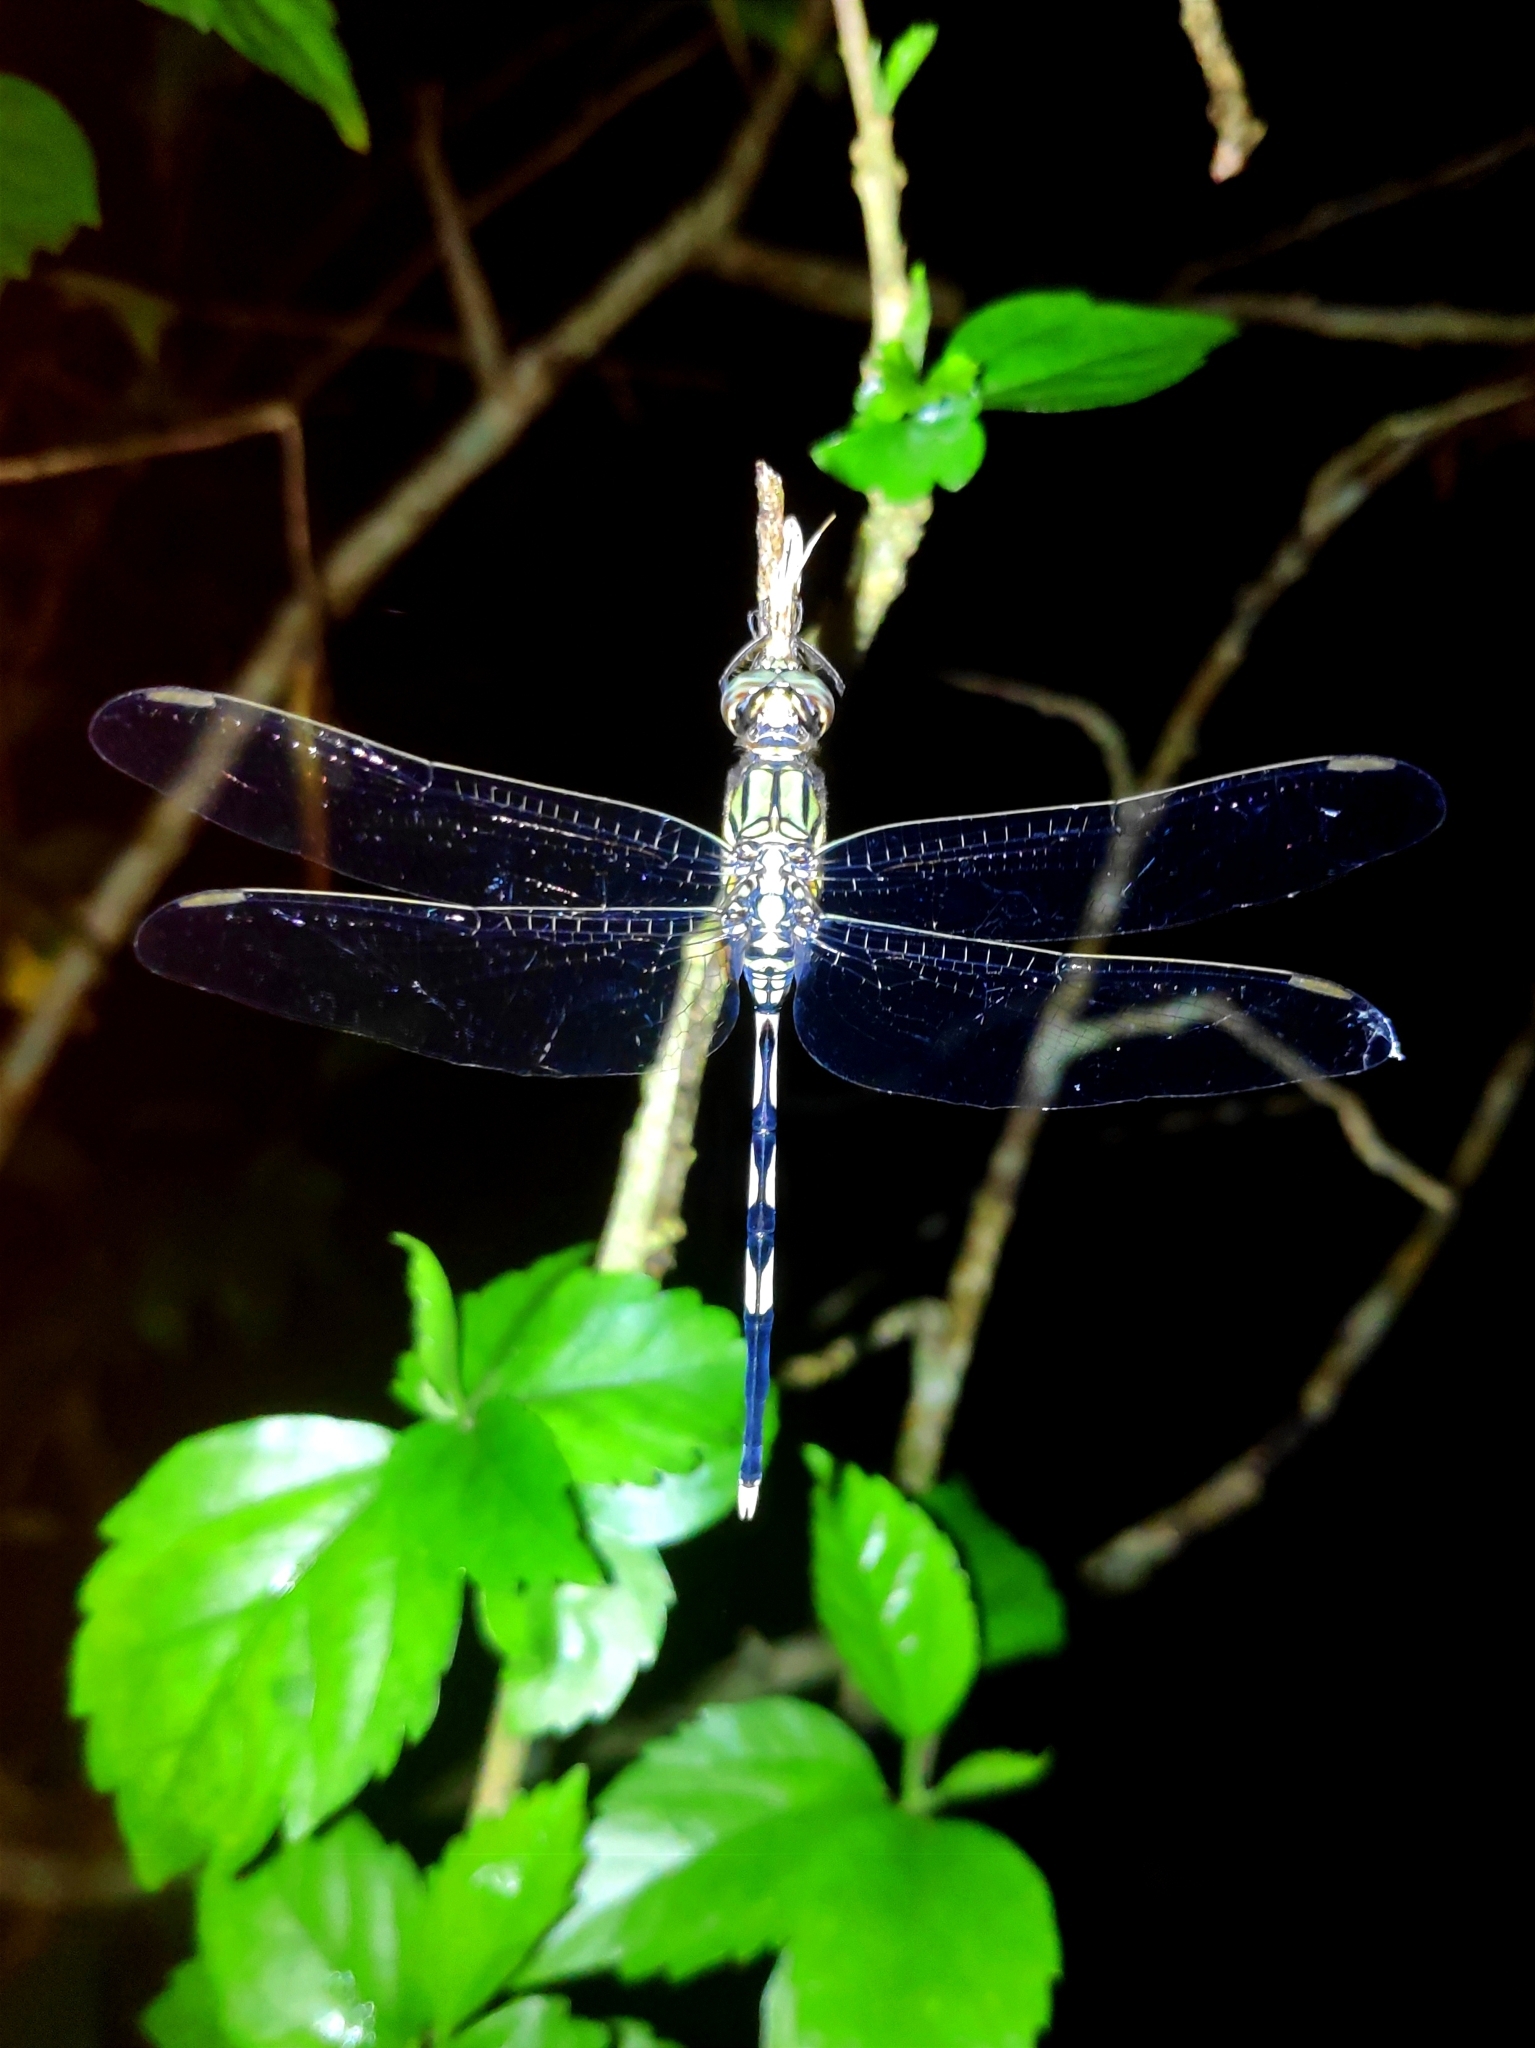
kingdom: Animalia
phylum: Arthropoda
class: Insecta
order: Odonata
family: Libellulidae
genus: Orthetrum
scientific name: Orthetrum sabina
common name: Slender skimmer
